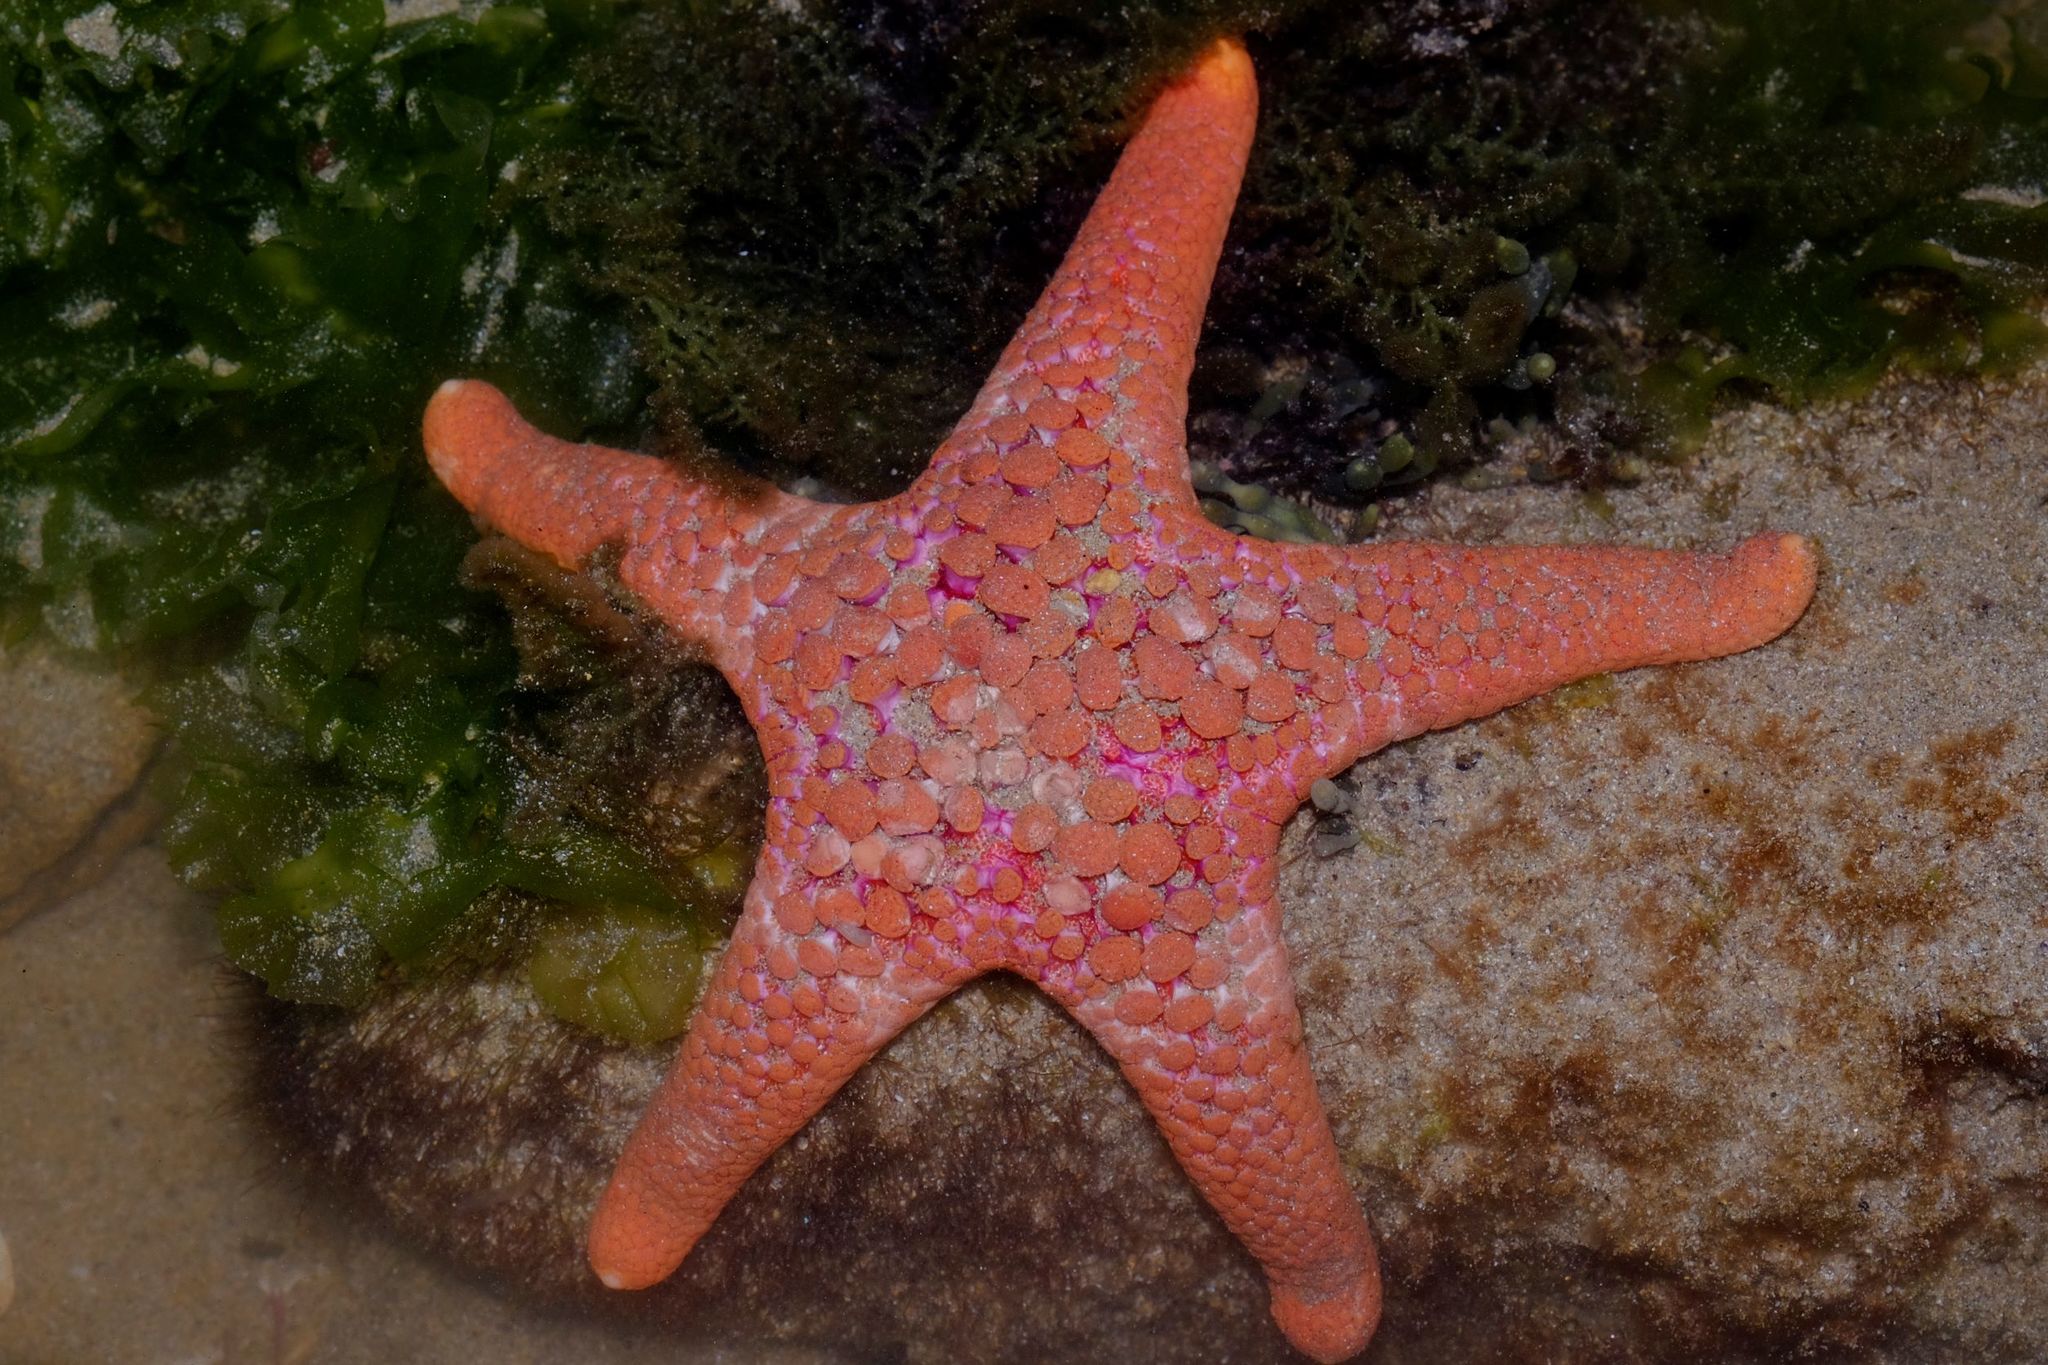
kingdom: Animalia
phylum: Echinodermata
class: Asteroidea
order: Valvatida
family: Goniasteridae
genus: Nectria
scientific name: Nectria ocellata
